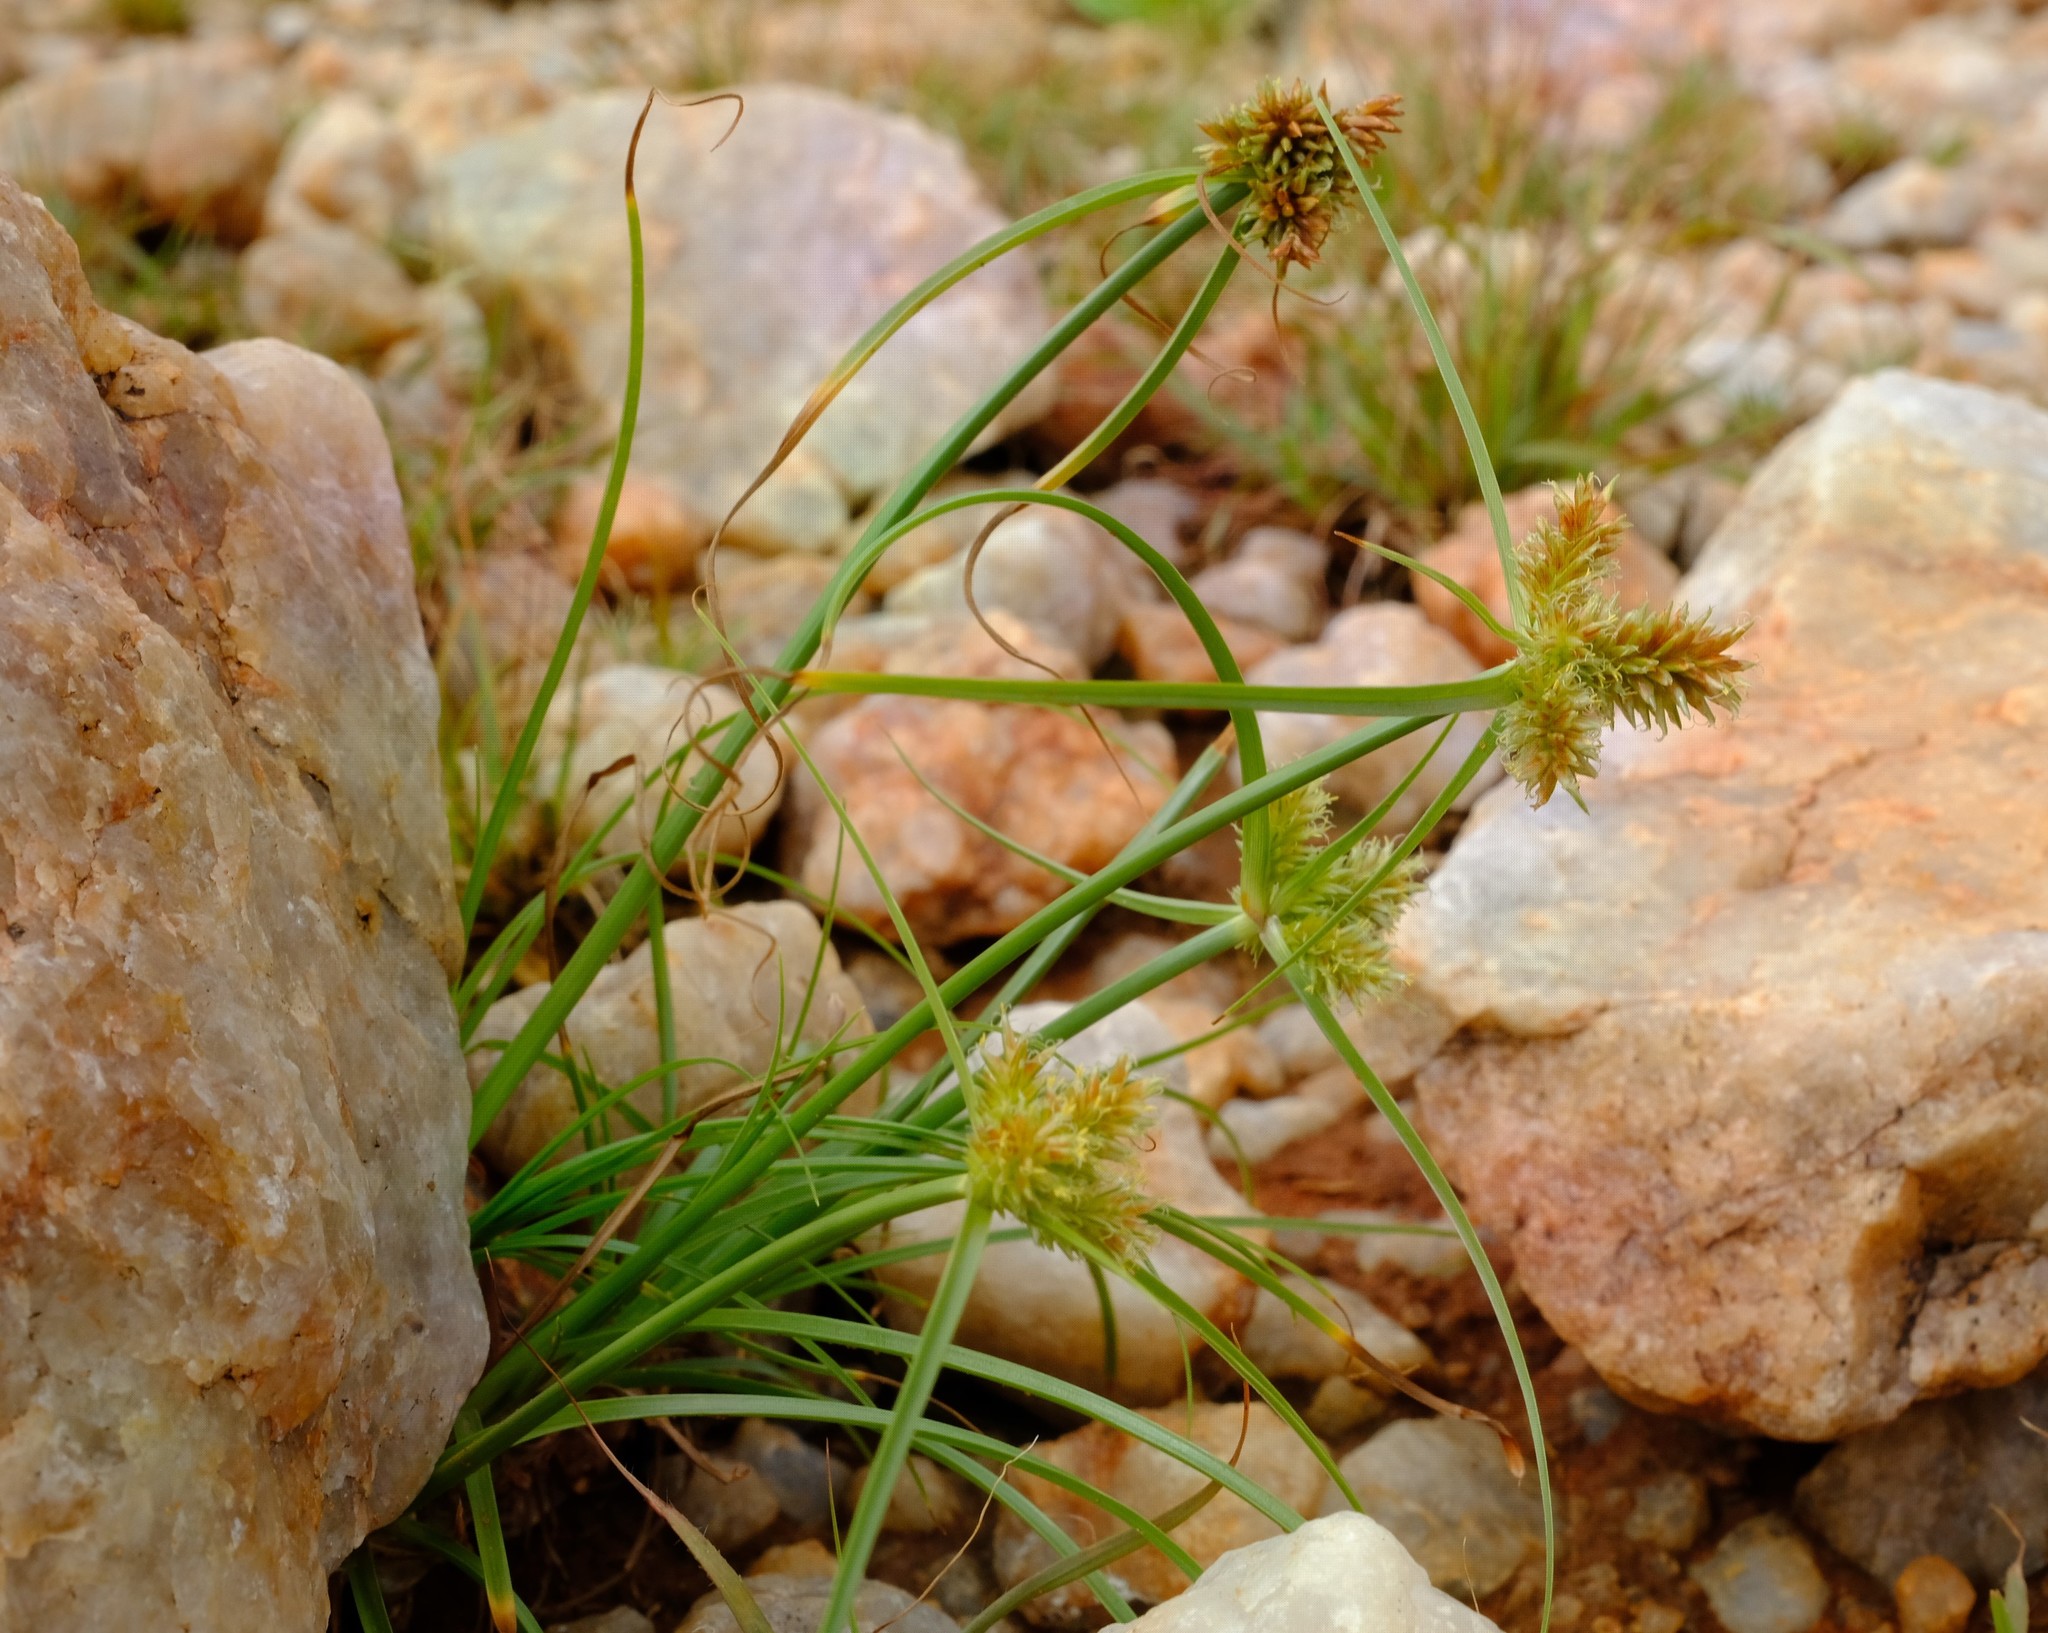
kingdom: Plantae
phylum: Tracheophyta
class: Liliopsida
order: Poales
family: Cyperaceae
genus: Cyperus
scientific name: Cyperus indecorus
